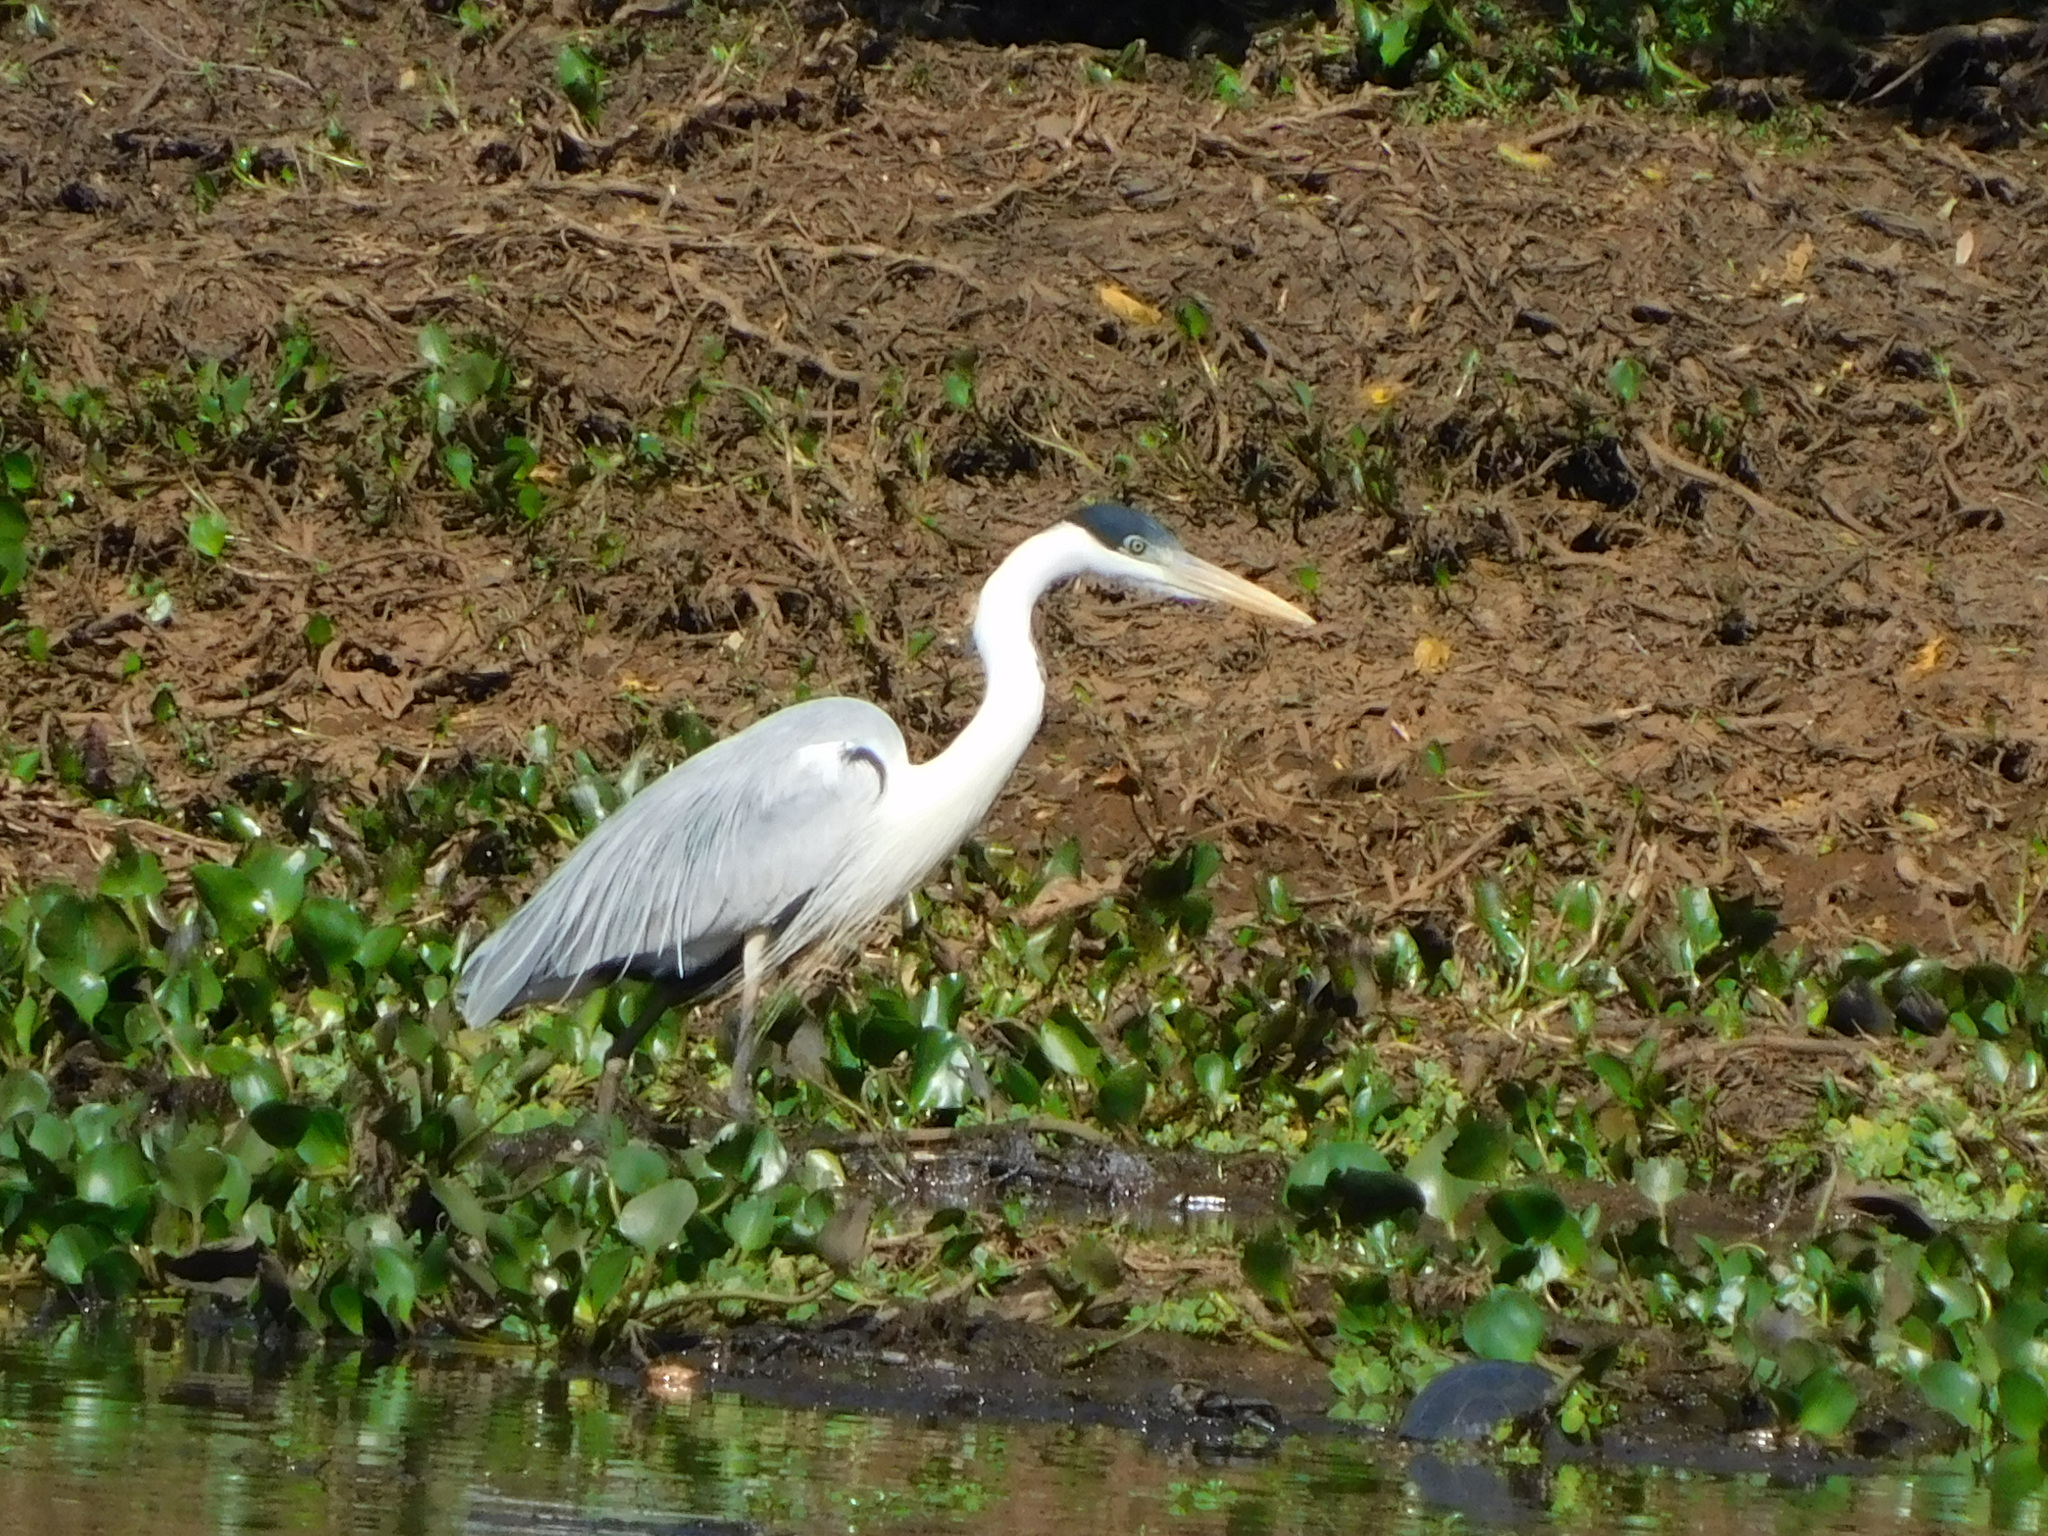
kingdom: Animalia
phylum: Chordata
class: Aves
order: Pelecaniformes
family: Ardeidae
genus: Ardea
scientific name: Ardea cocoi
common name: Cocoi heron
